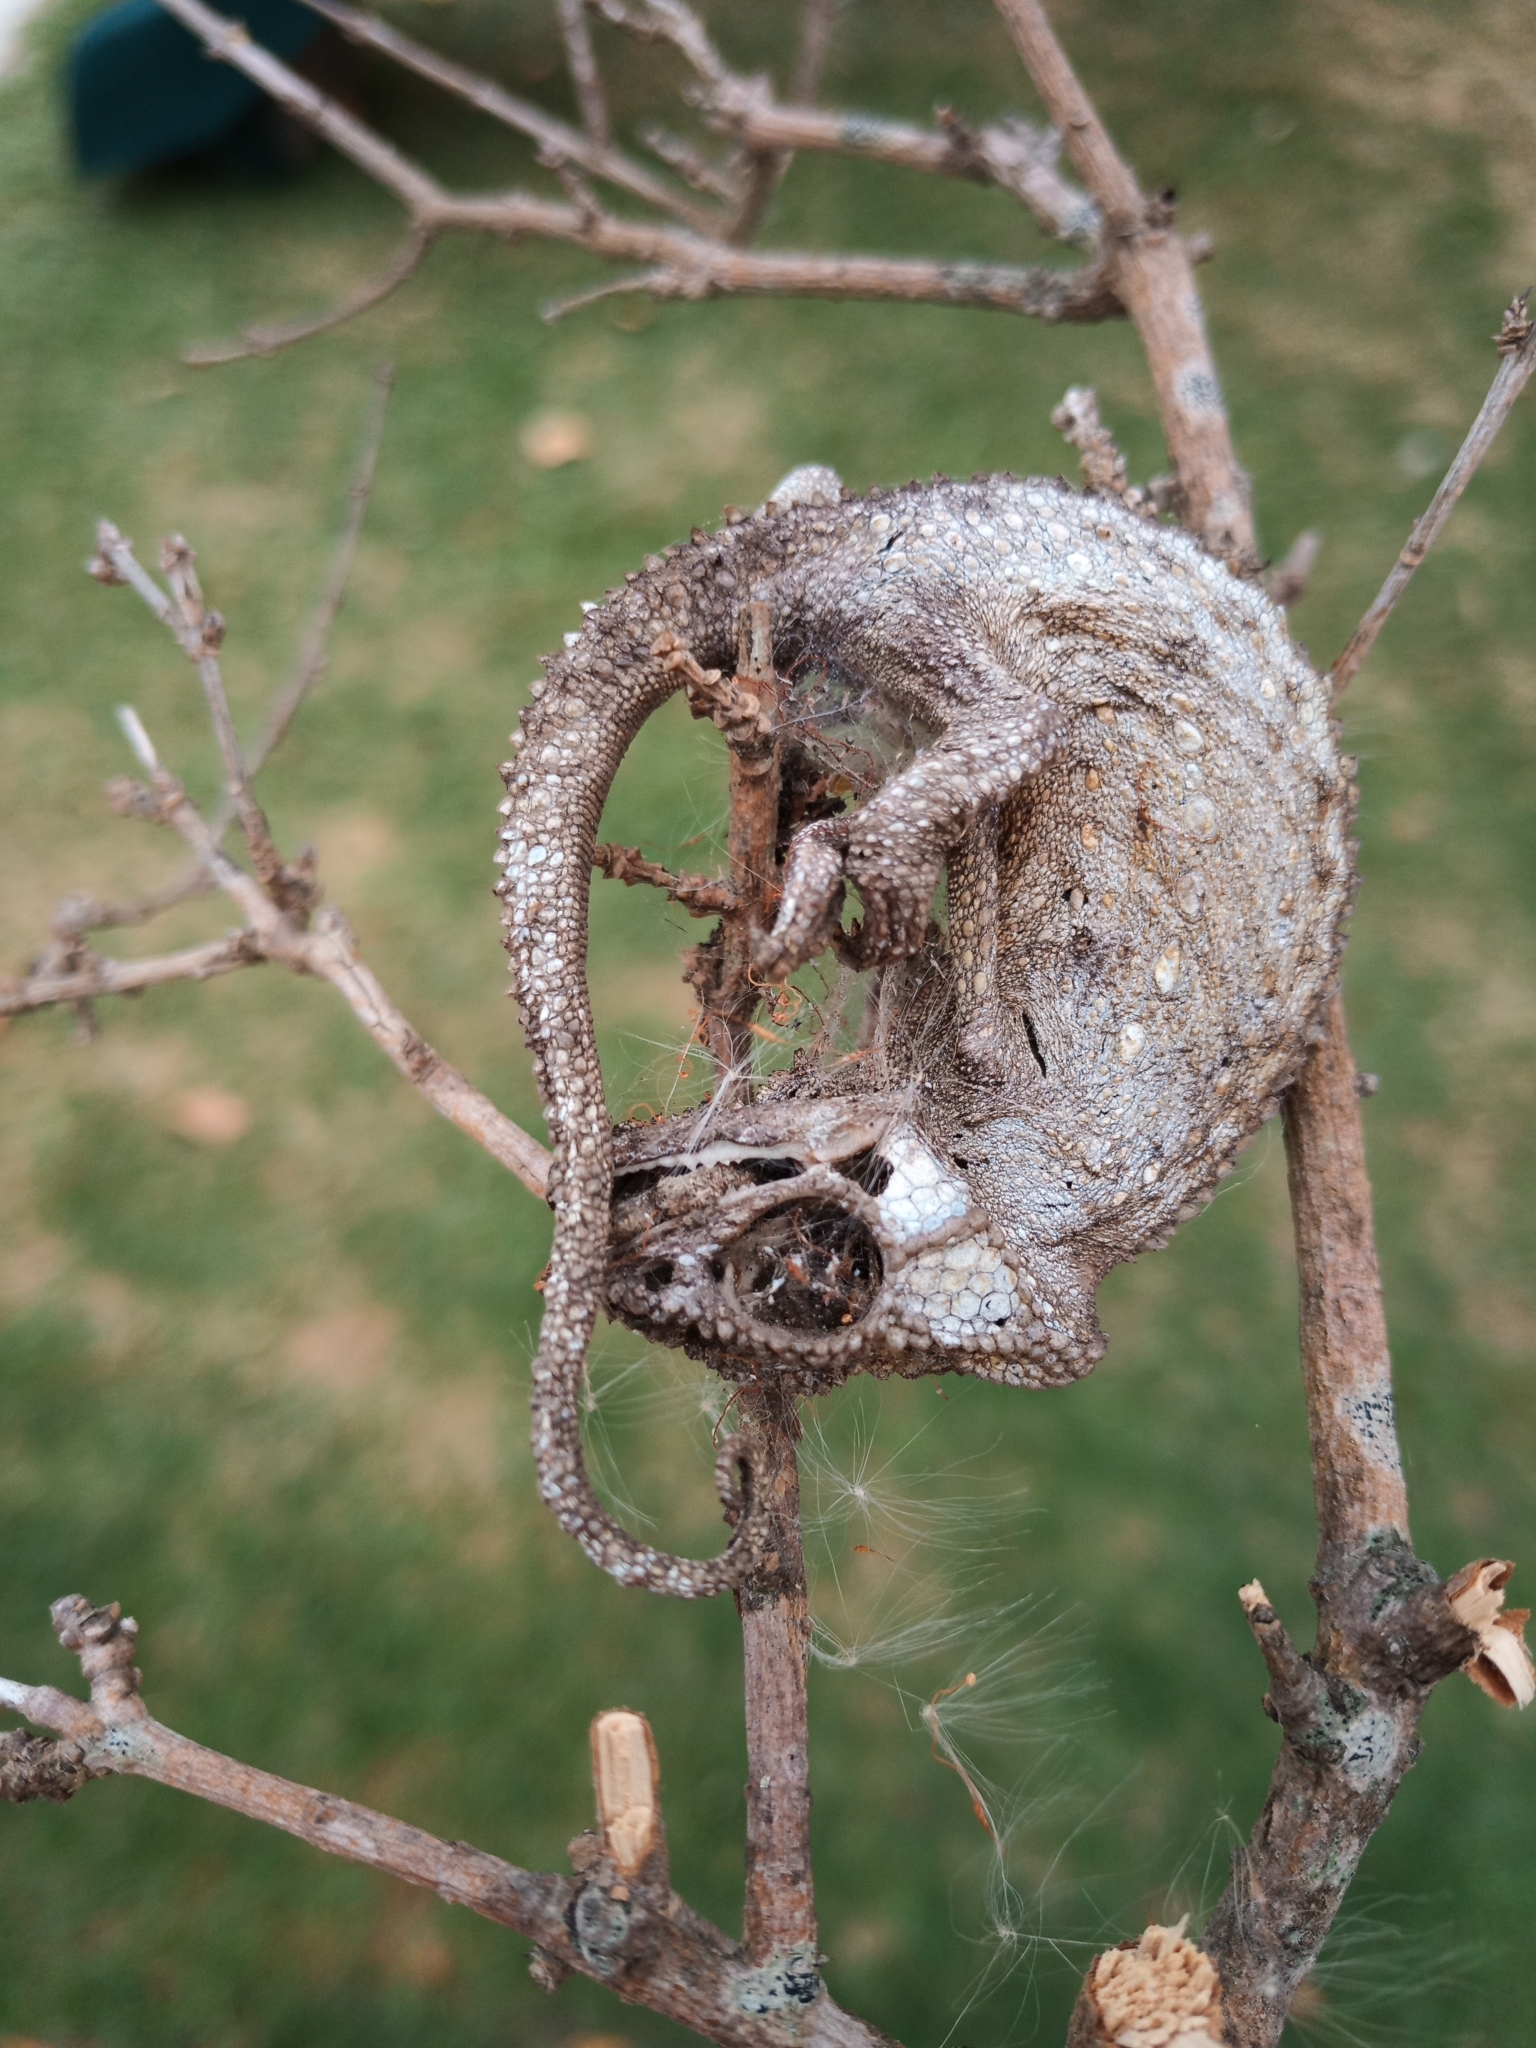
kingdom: Animalia
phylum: Chordata
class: Squamata
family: Chamaeleonidae
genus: Bradypodion
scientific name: Bradypodion pumilum
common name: Cape dwarf chameleon
